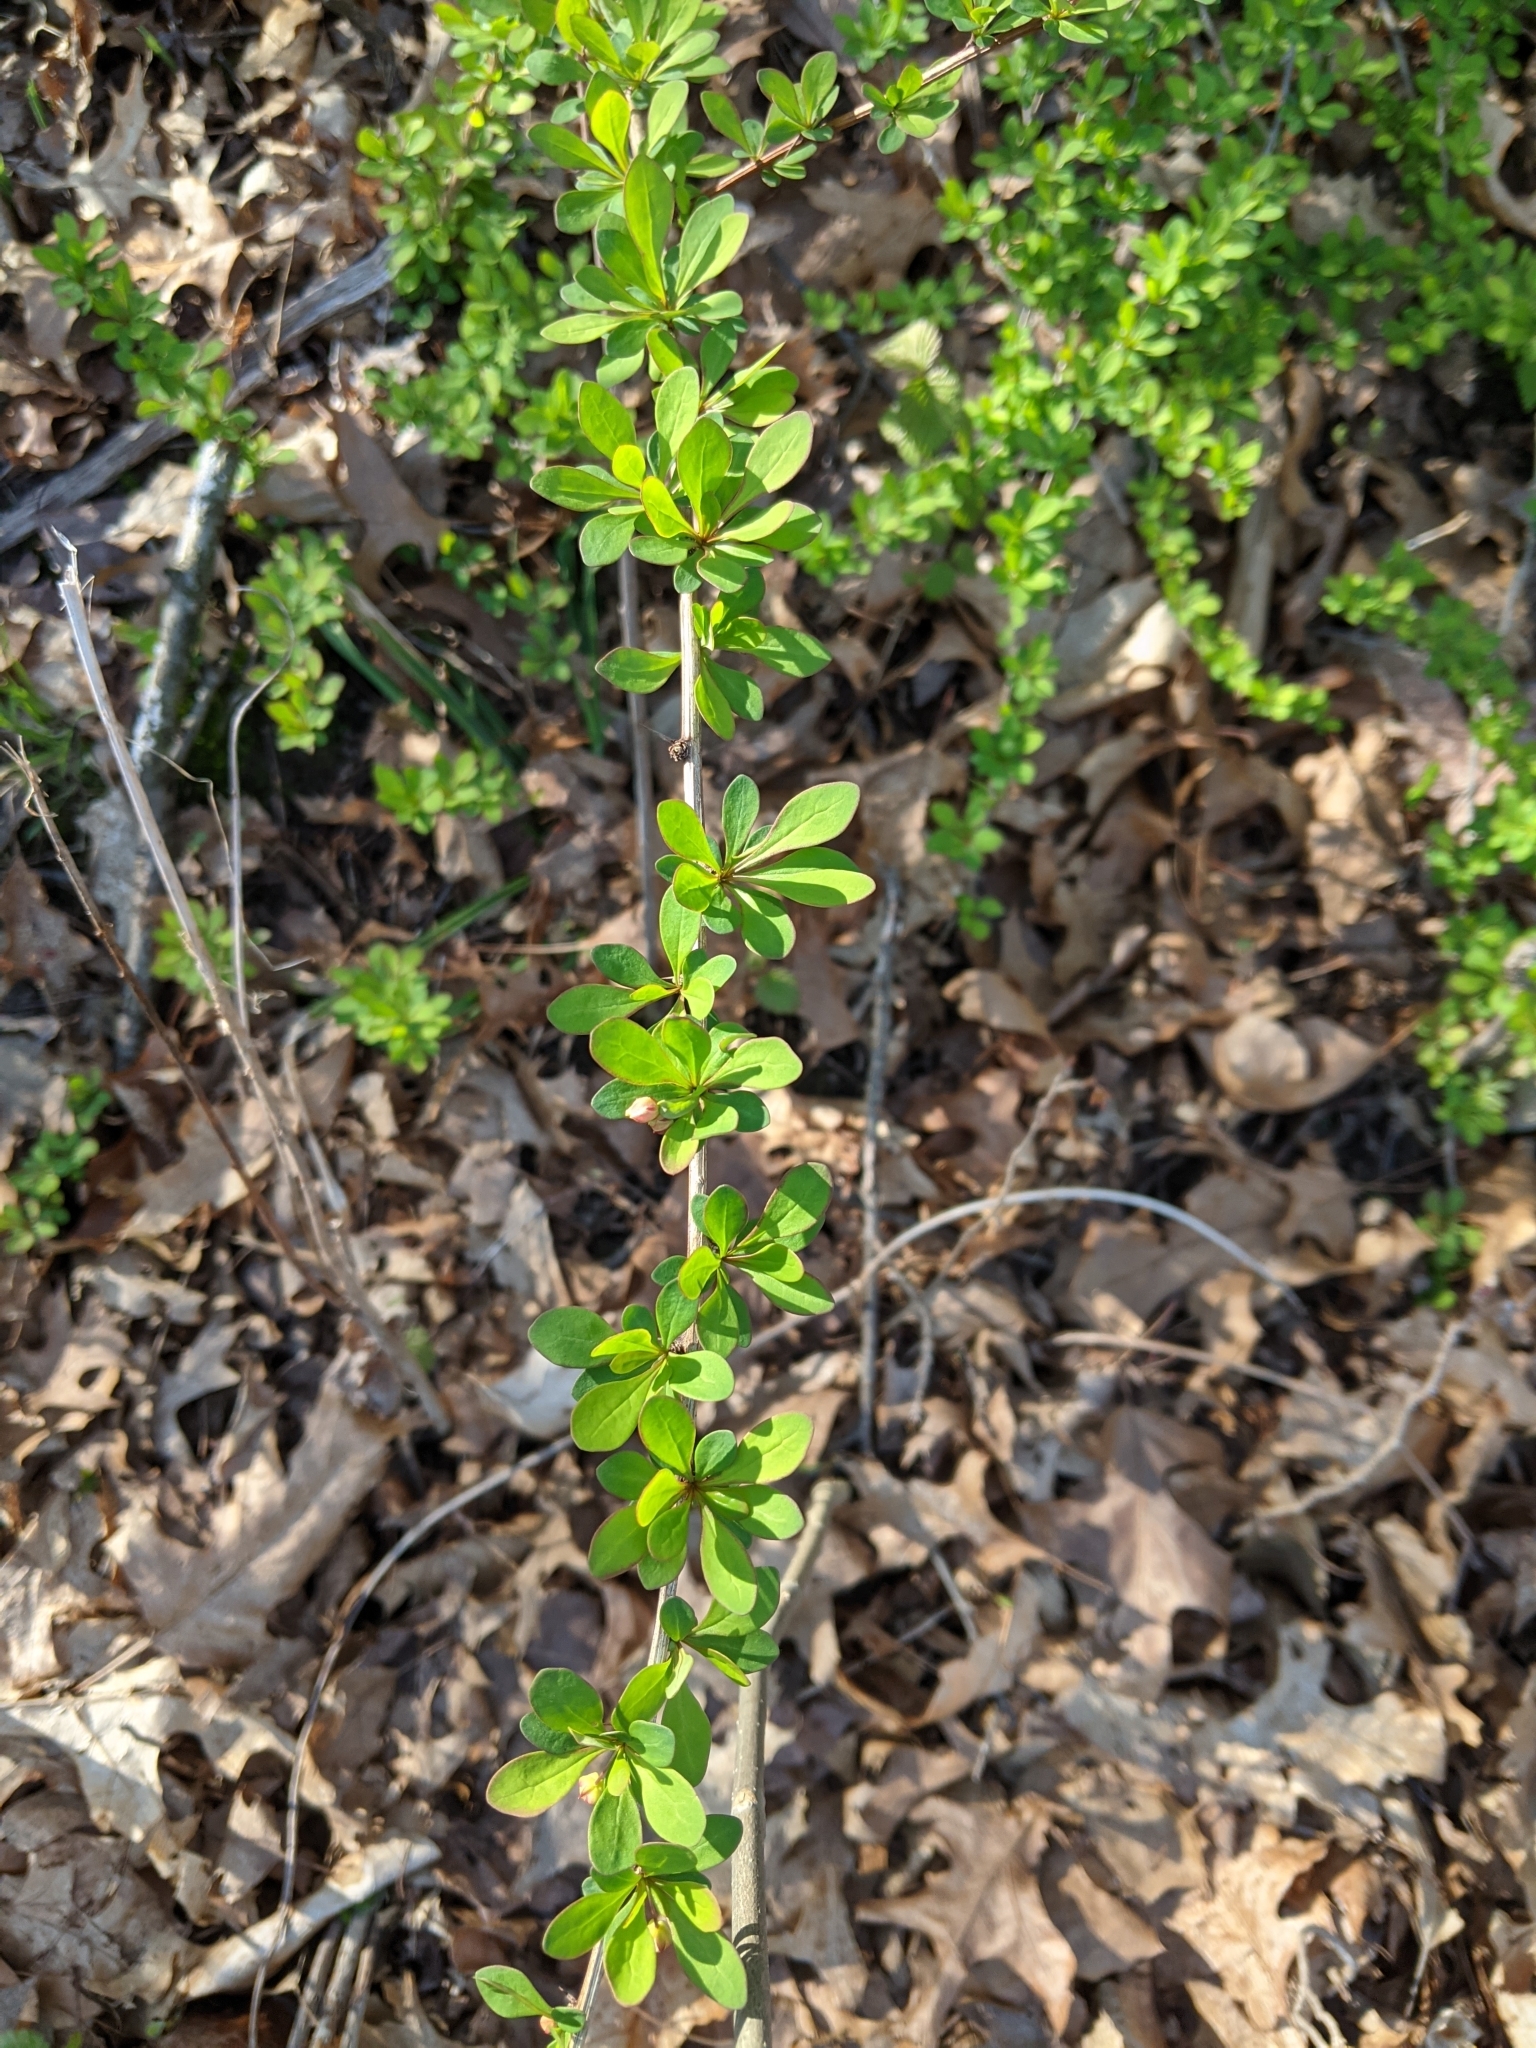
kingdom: Plantae
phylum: Tracheophyta
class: Magnoliopsida
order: Ranunculales
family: Berberidaceae
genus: Berberis
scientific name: Berberis thunbergii
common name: Japanese barberry
